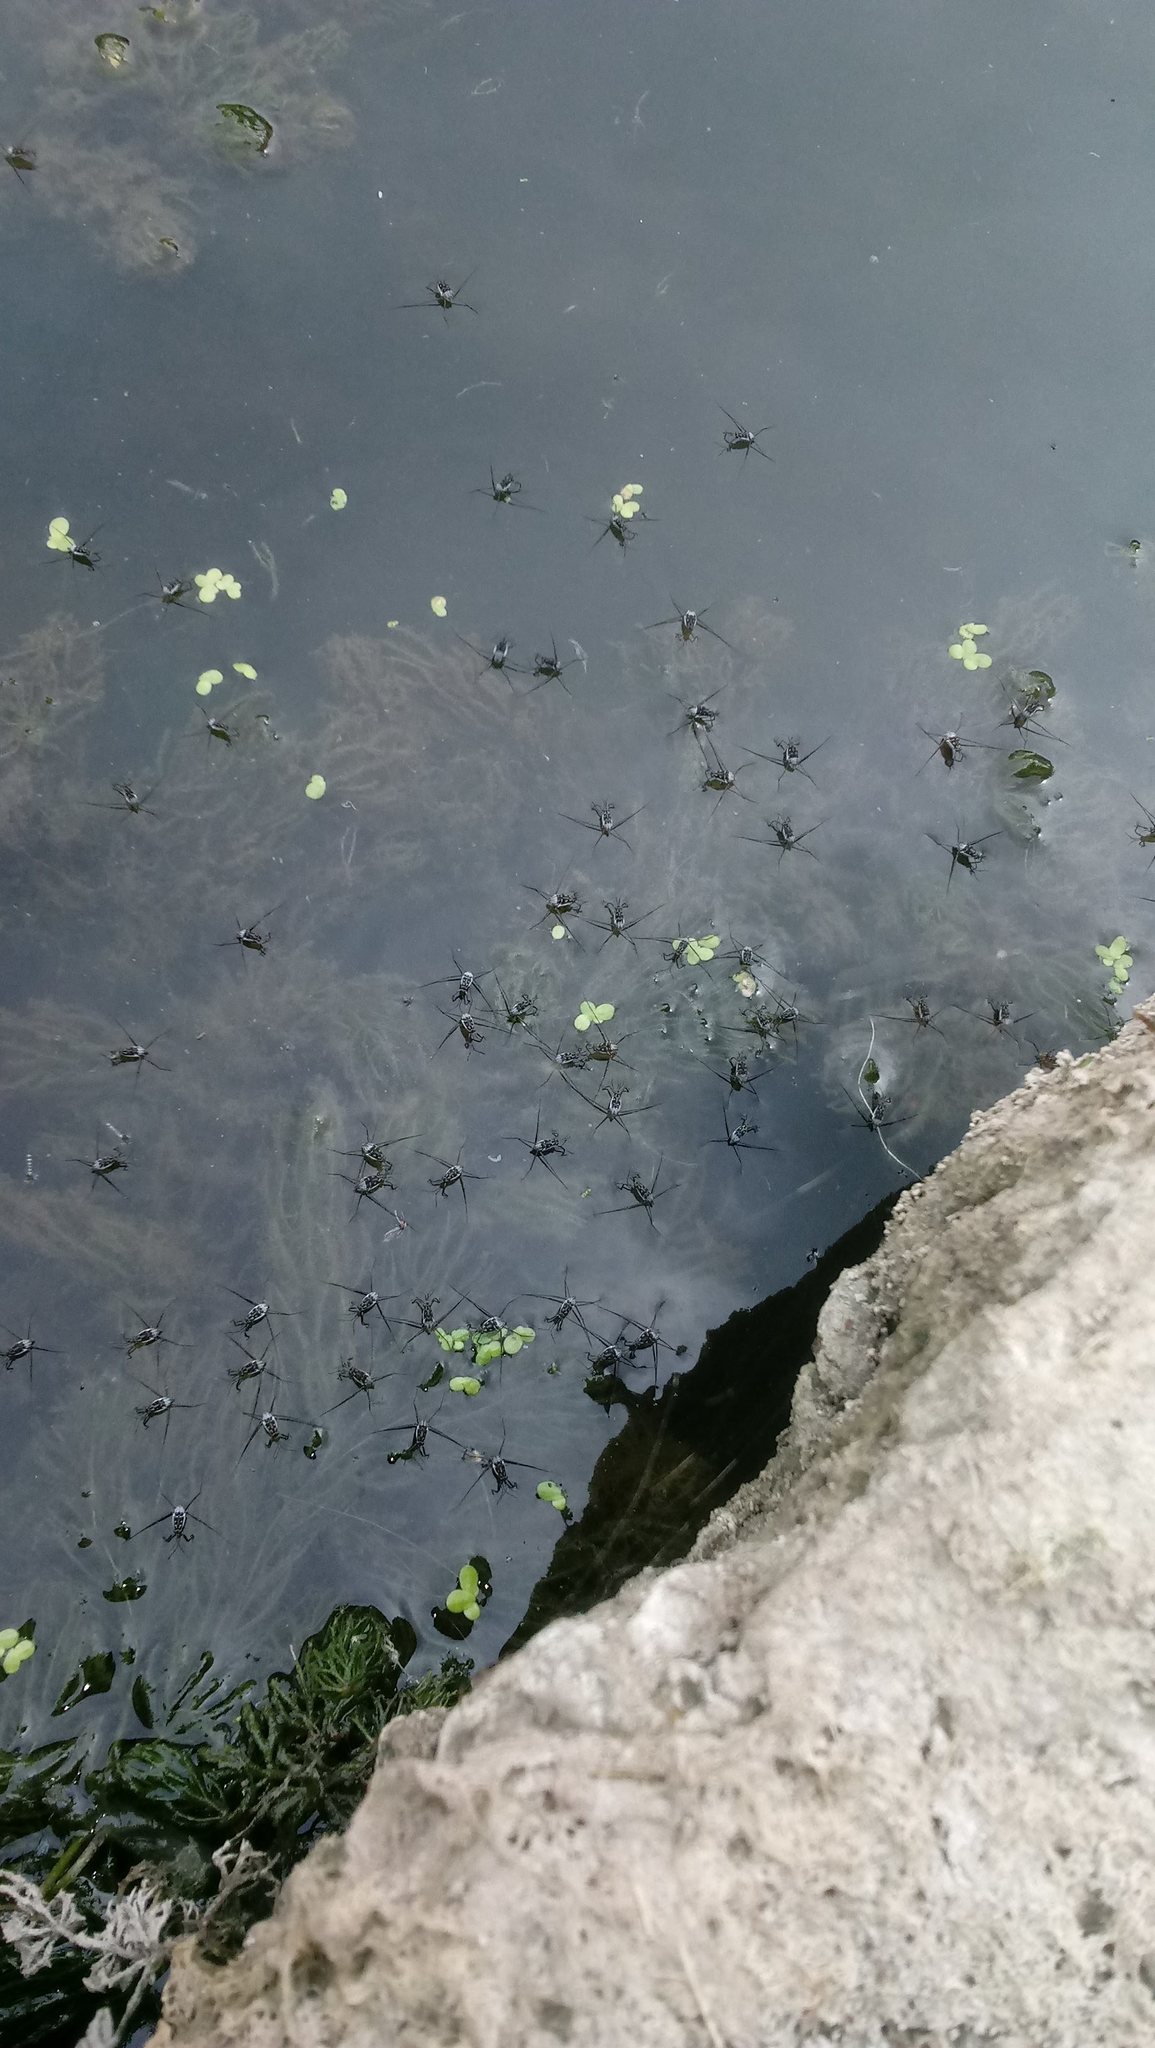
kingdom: Animalia
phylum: Arthropoda
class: Insecta
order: Hemiptera
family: Gerridae
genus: Trepobates
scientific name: Trepobates
